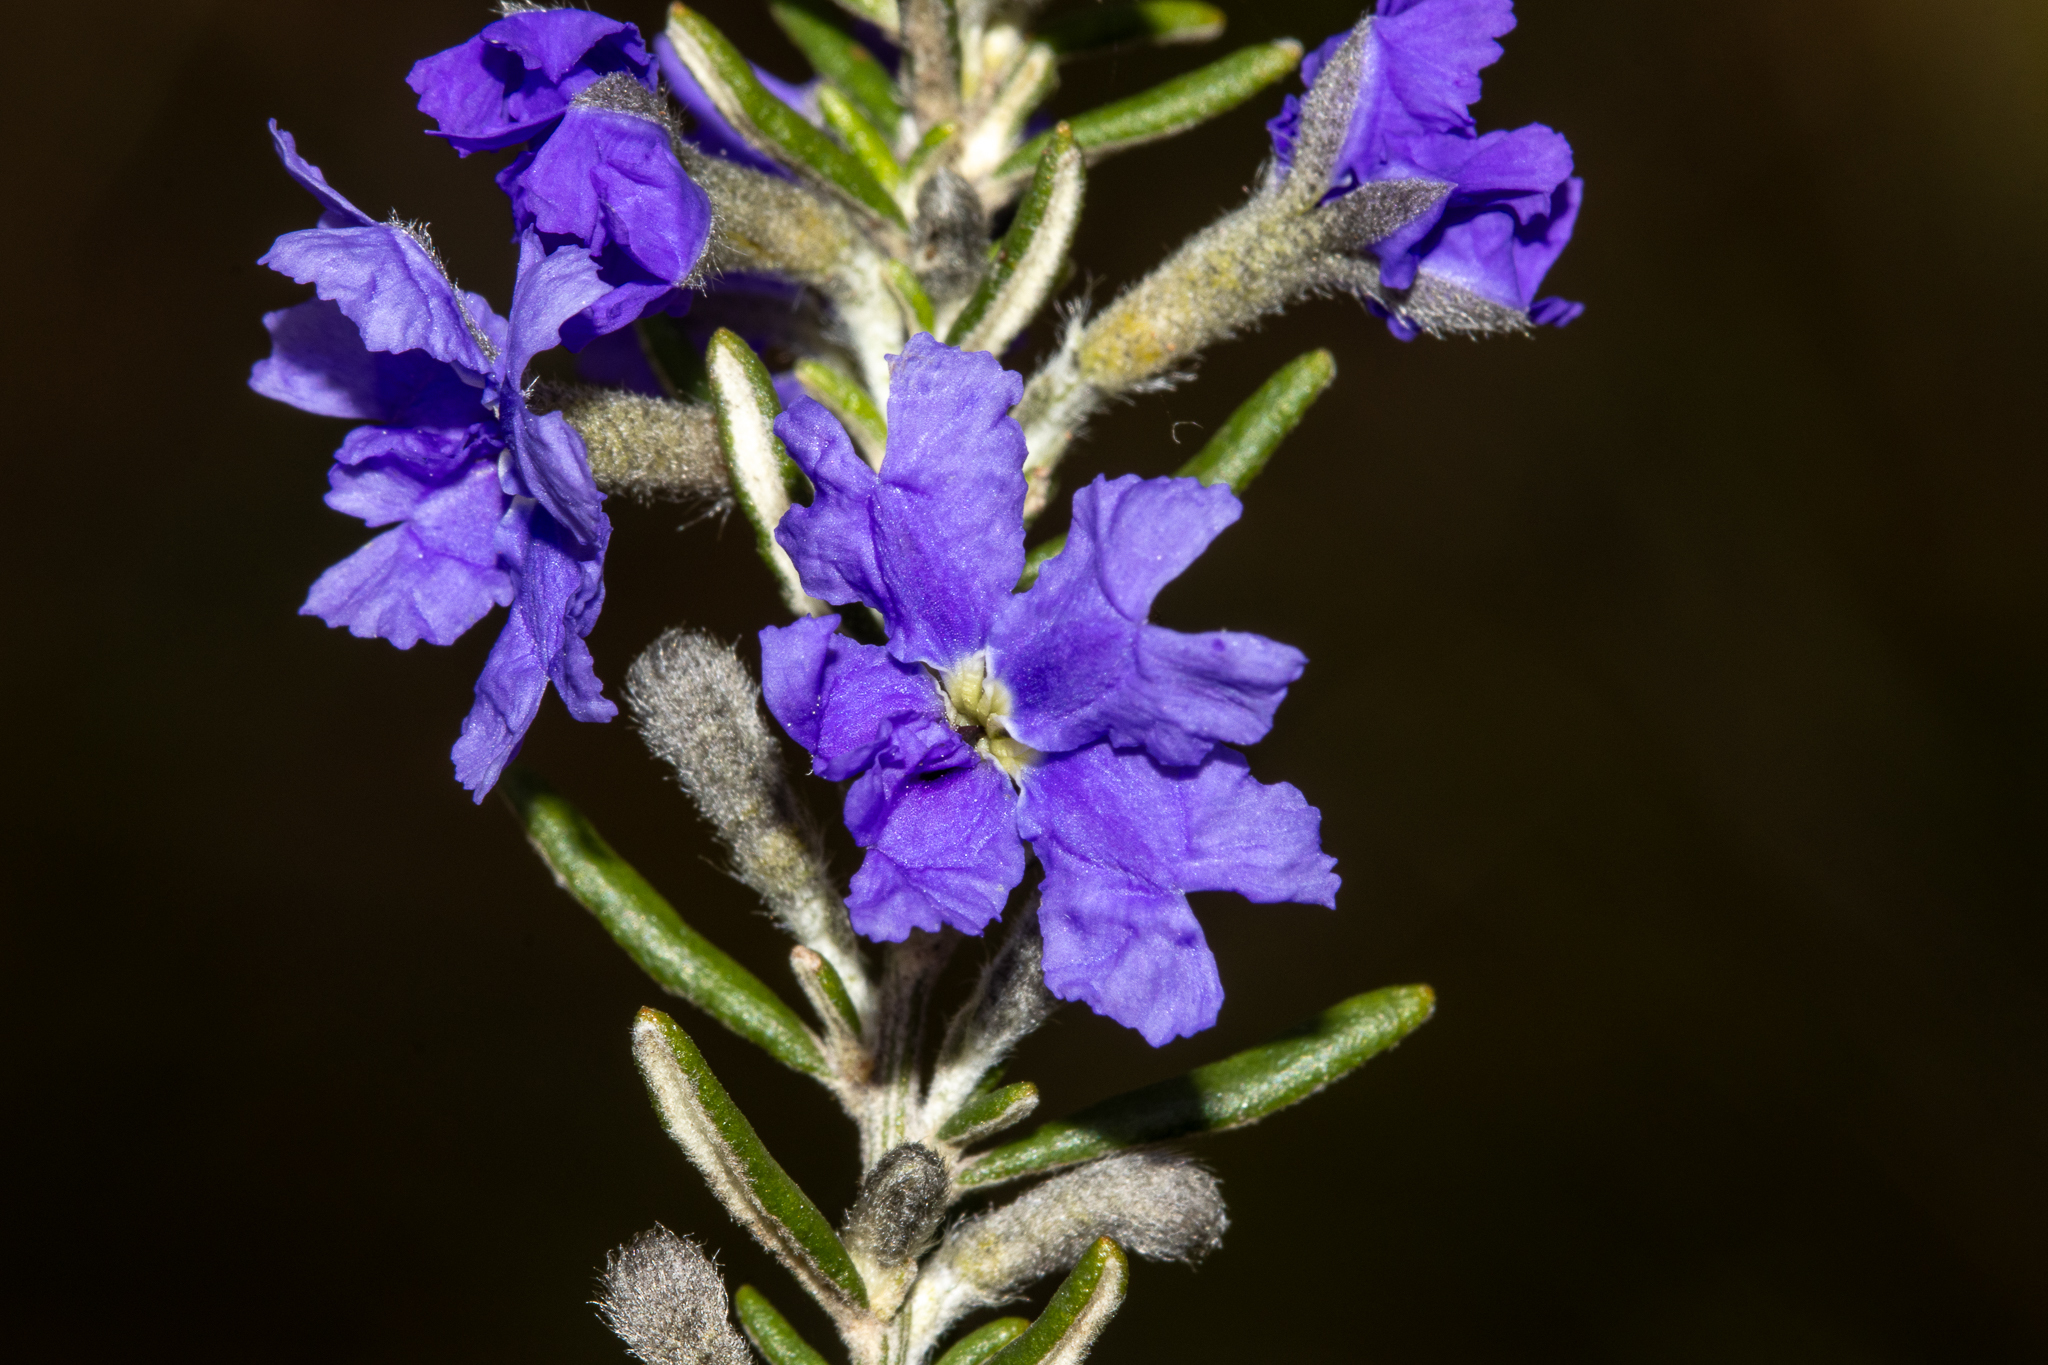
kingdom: Plantae
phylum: Tracheophyta
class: Magnoliopsida
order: Asterales
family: Goodeniaceae
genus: Dampiera
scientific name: Dampiera rosmarinifolia
